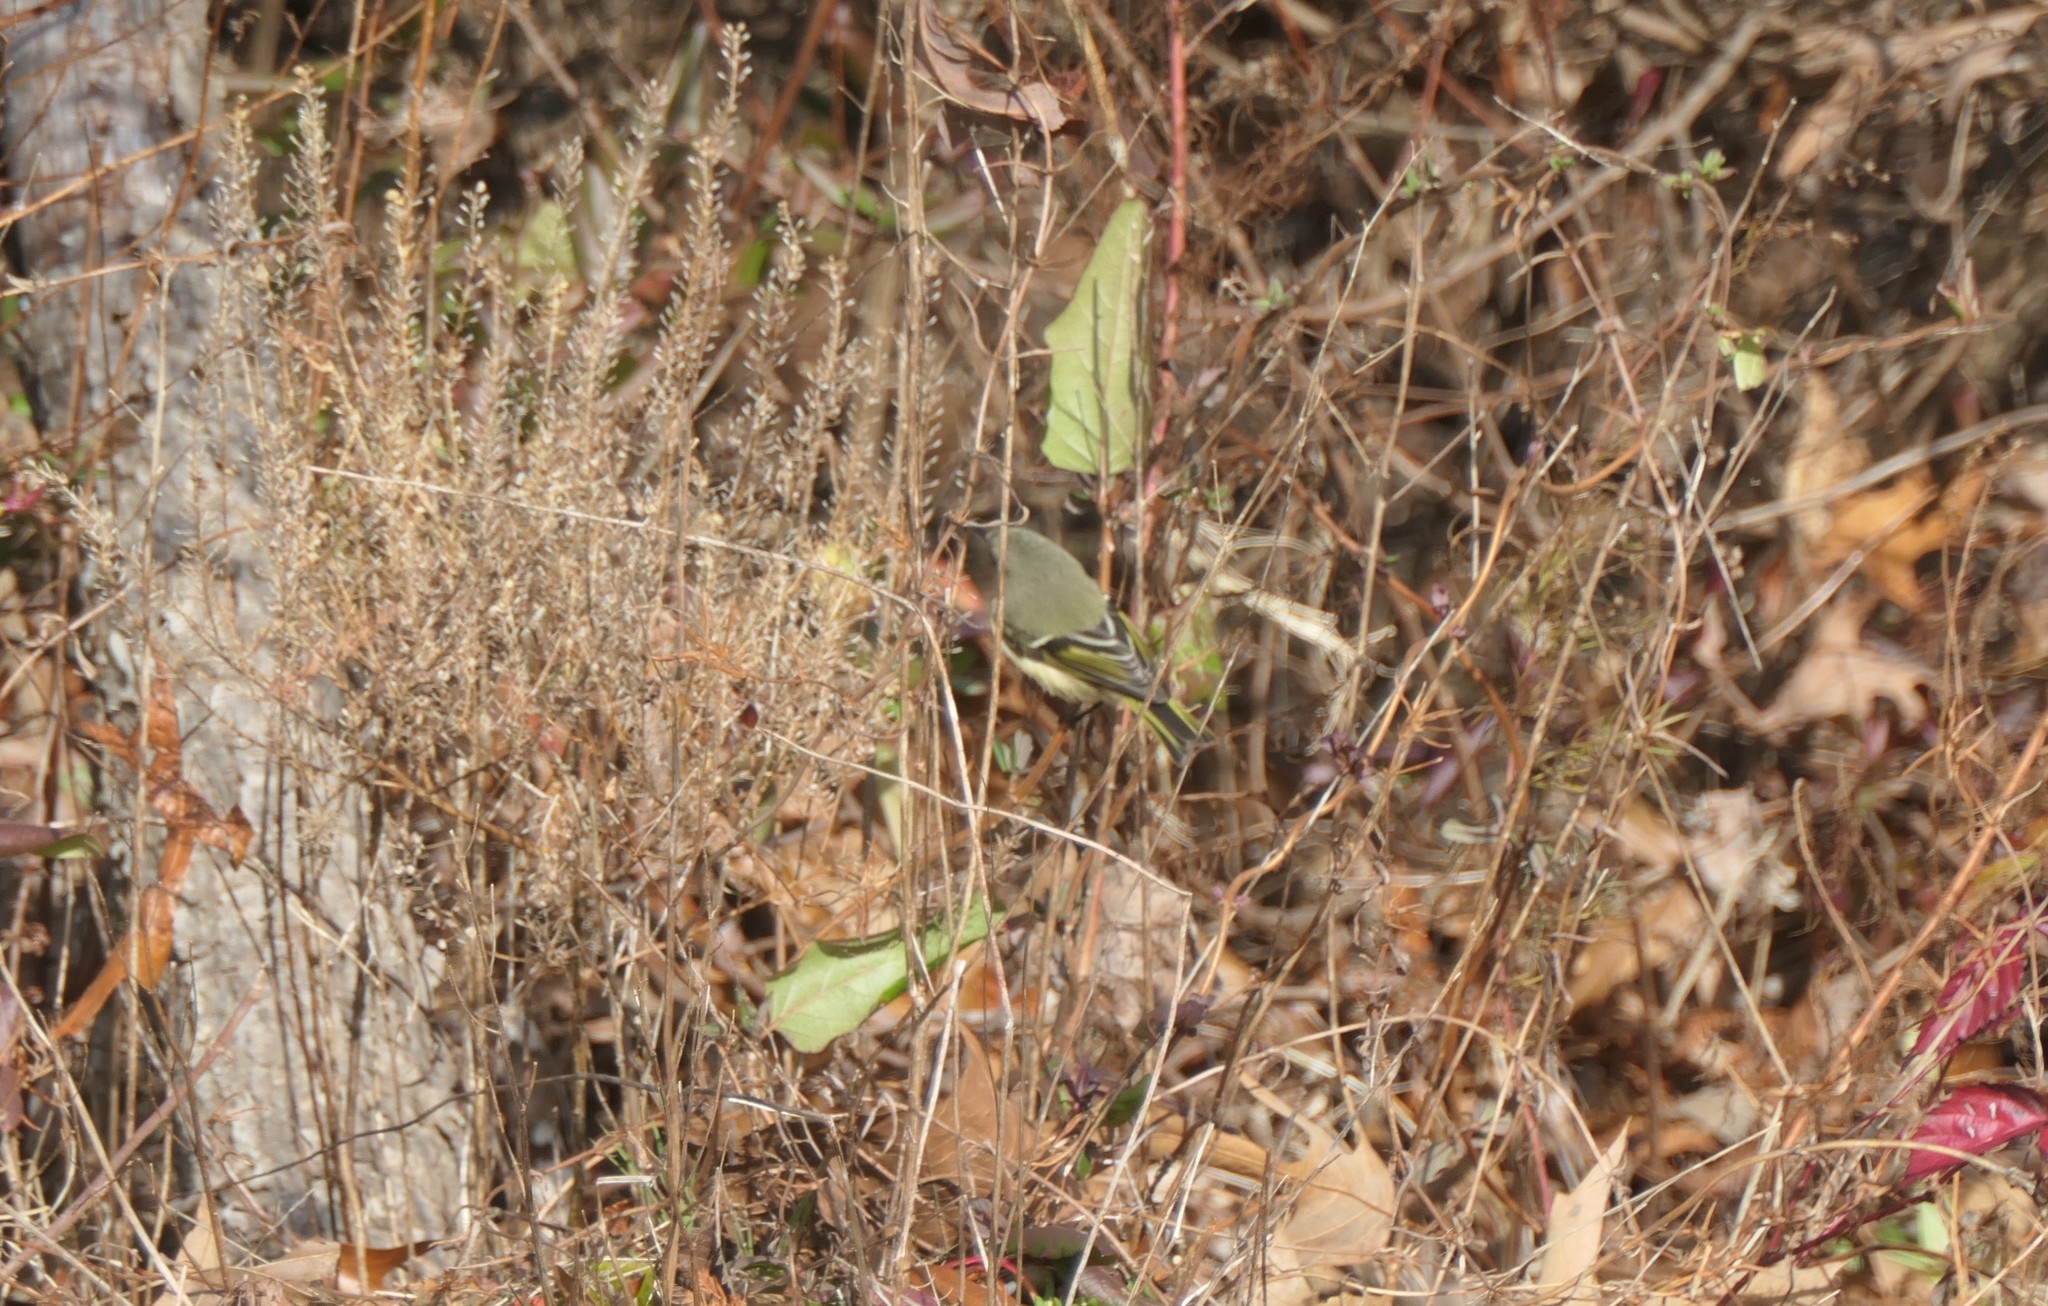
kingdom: Animalia
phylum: Chordata
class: Aves
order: Passeriformes
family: Regulidae
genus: Regulus
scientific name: Regulus calendula
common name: Ruby-crowned kinglet
